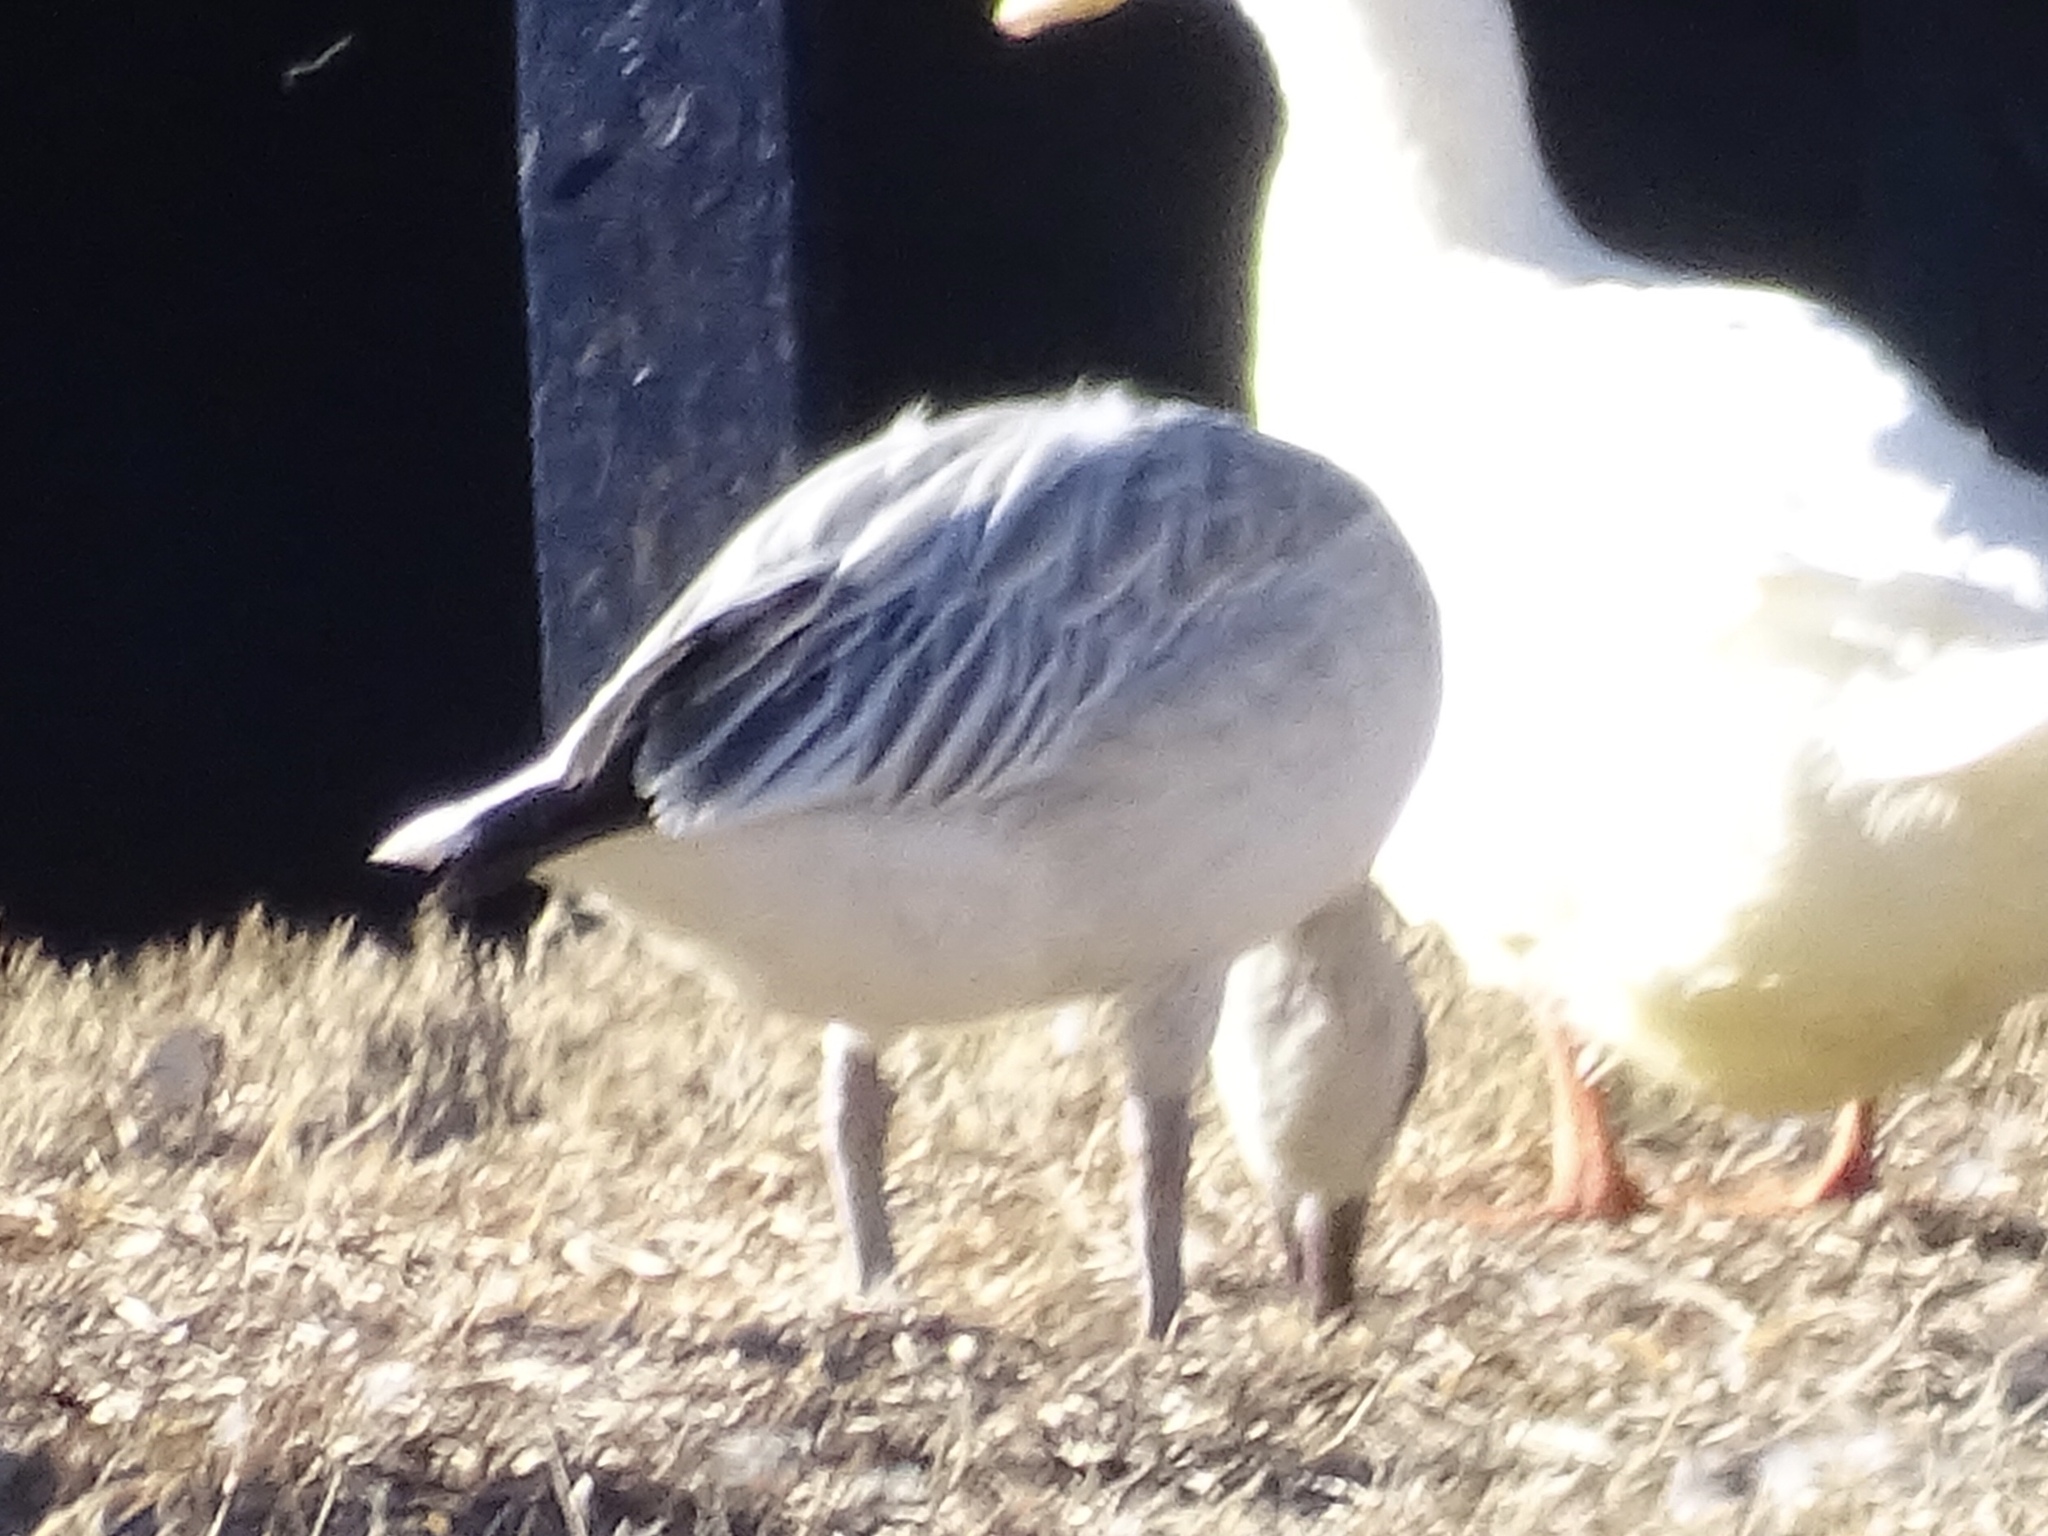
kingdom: Animalia
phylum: Chordata
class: Aves
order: Anseriformes
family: Anatidae
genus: Anser
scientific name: Anser caerulescens
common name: Snow goose
